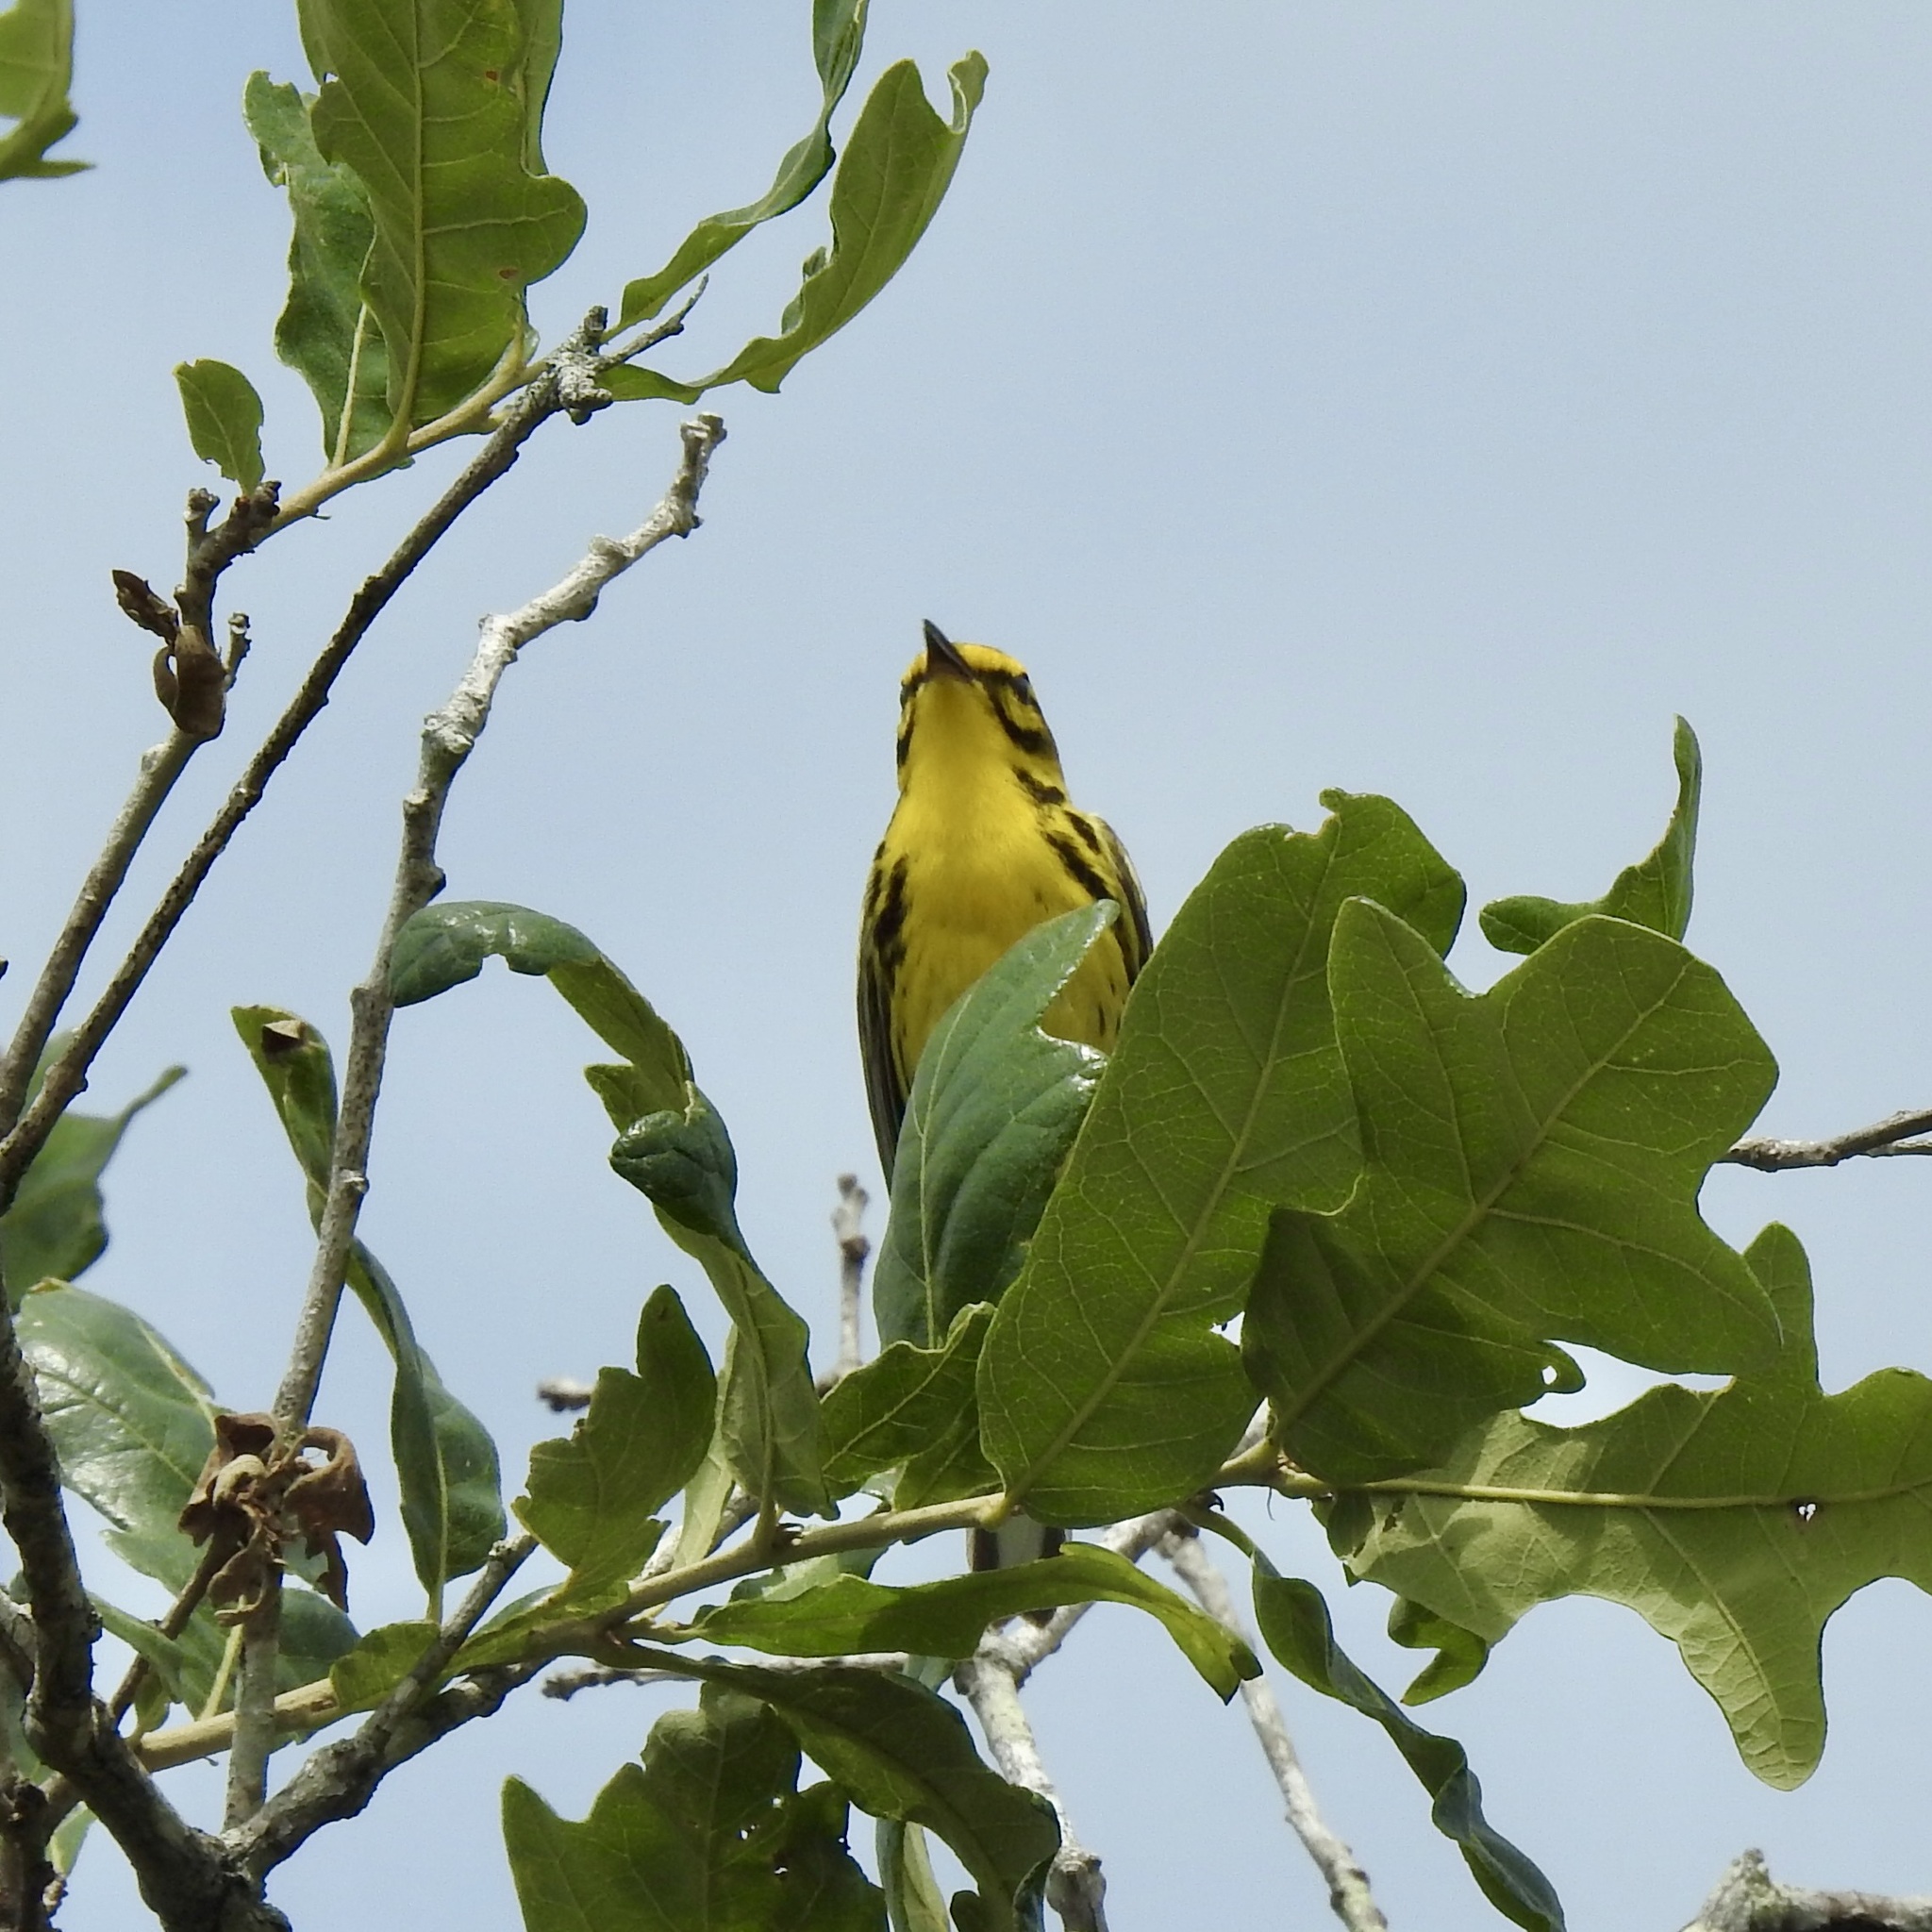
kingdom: Animalia
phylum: Chordata
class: Aves
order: Passeriformes
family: Parulidae
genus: Setophaga
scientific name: Setophaga discolor
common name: Prairie warbler
